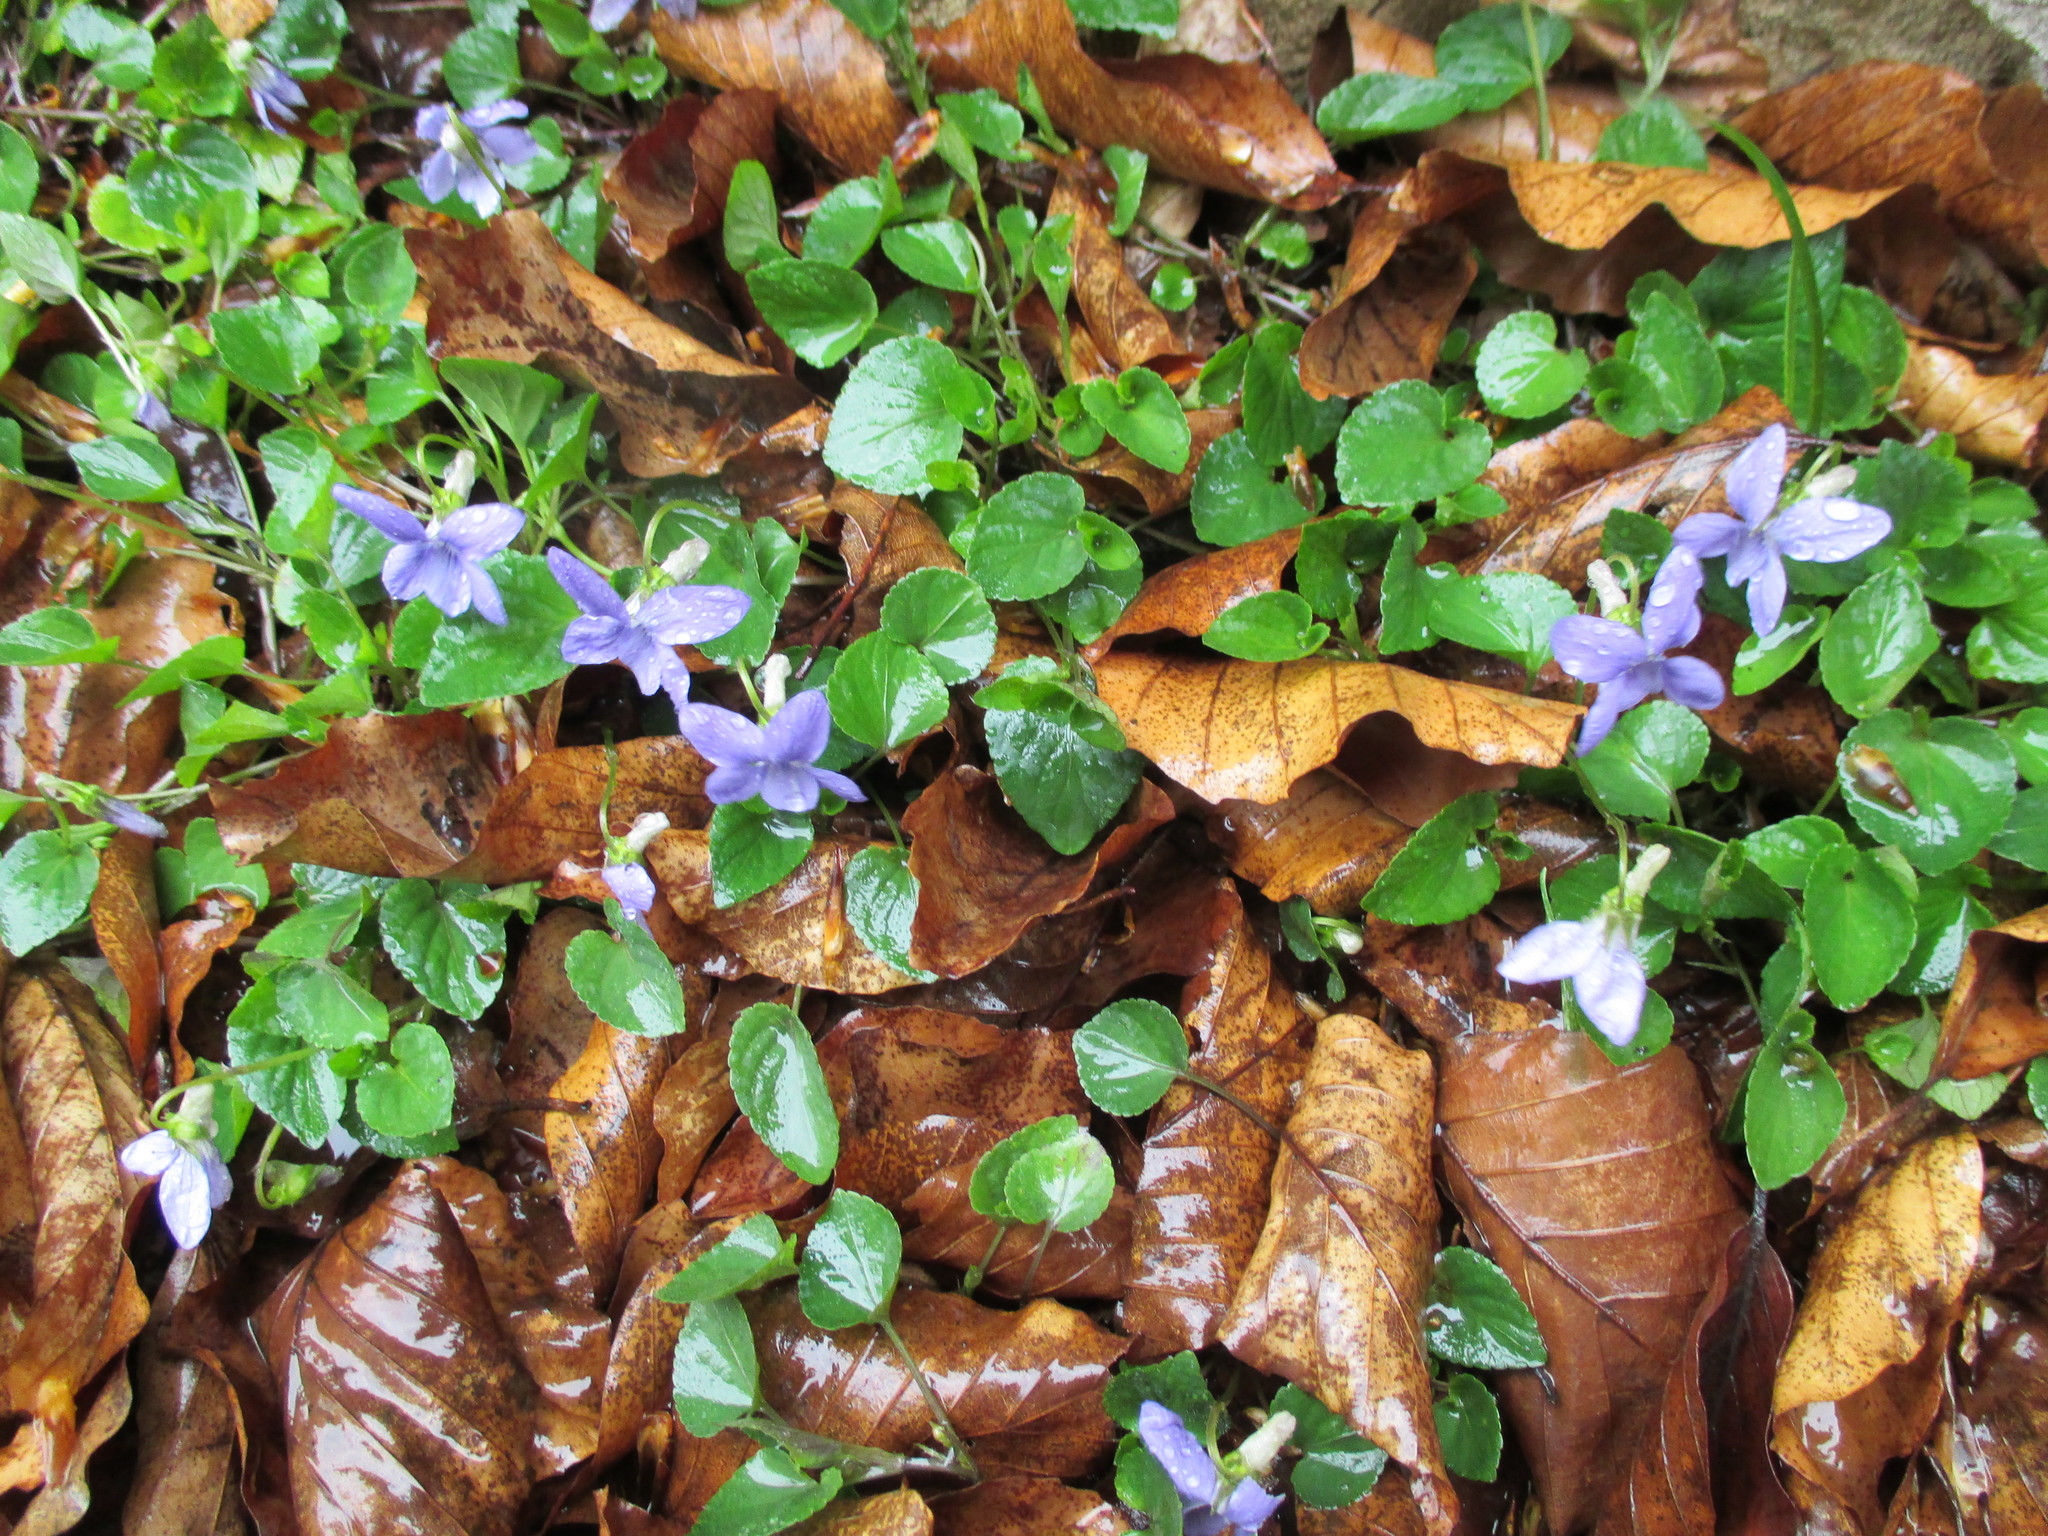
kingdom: Plantae
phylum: Tracheophyta
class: Magnoliopsida
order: Malpighiales
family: Violaceae
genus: Viola
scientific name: Viola riviniana
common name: Common dog-violet
